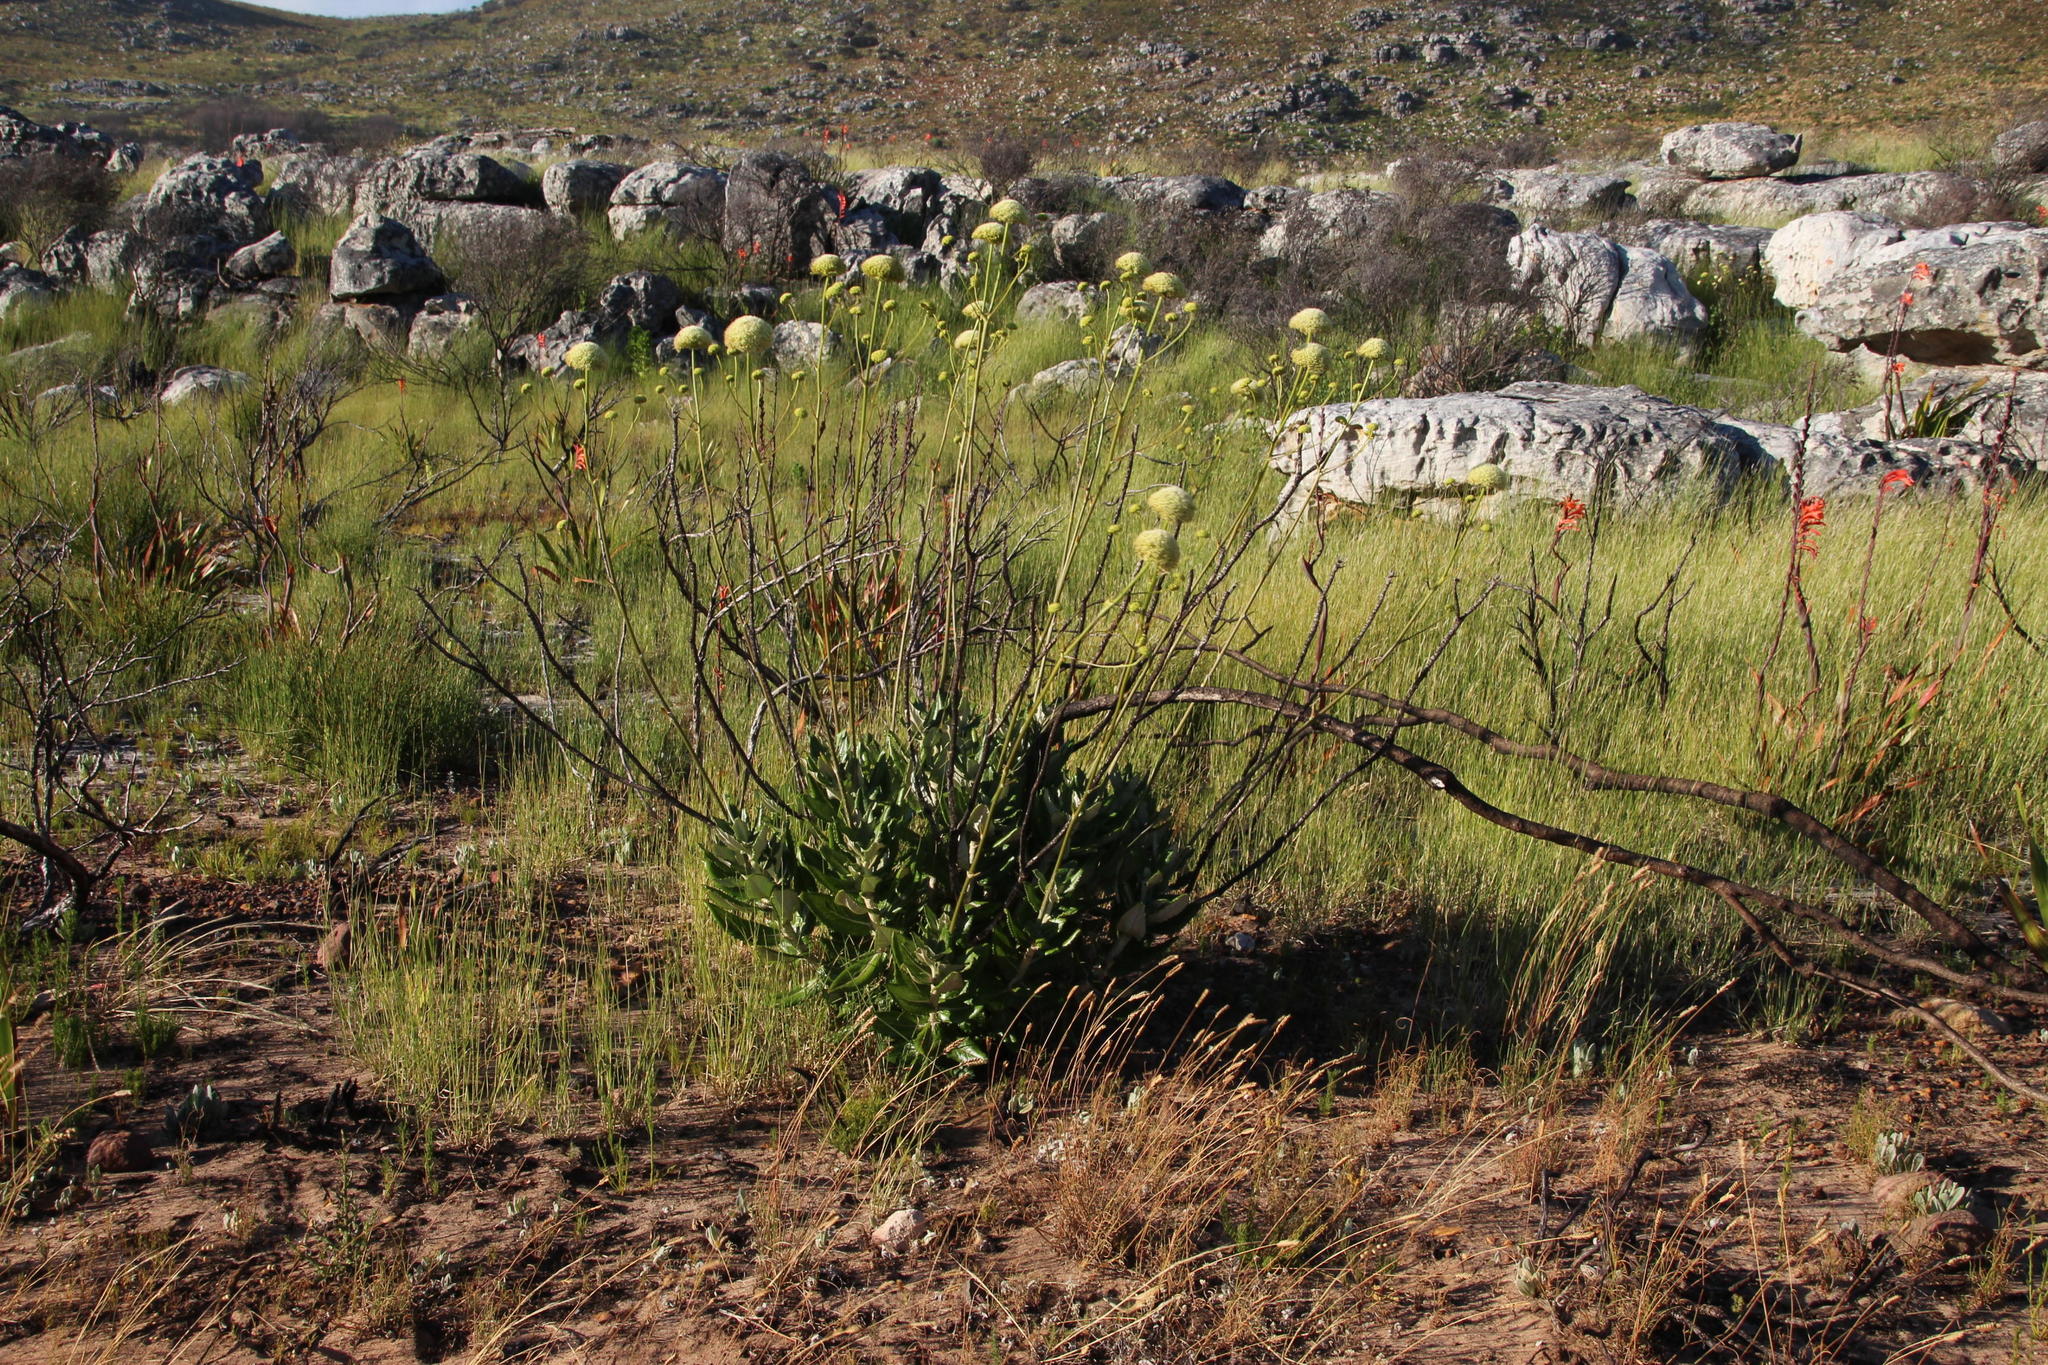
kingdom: Plantae
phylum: Tracheophyta
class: Magnoliopsida
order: Apiales
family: Apiaceae
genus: Hermas
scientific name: Hermas villosa
